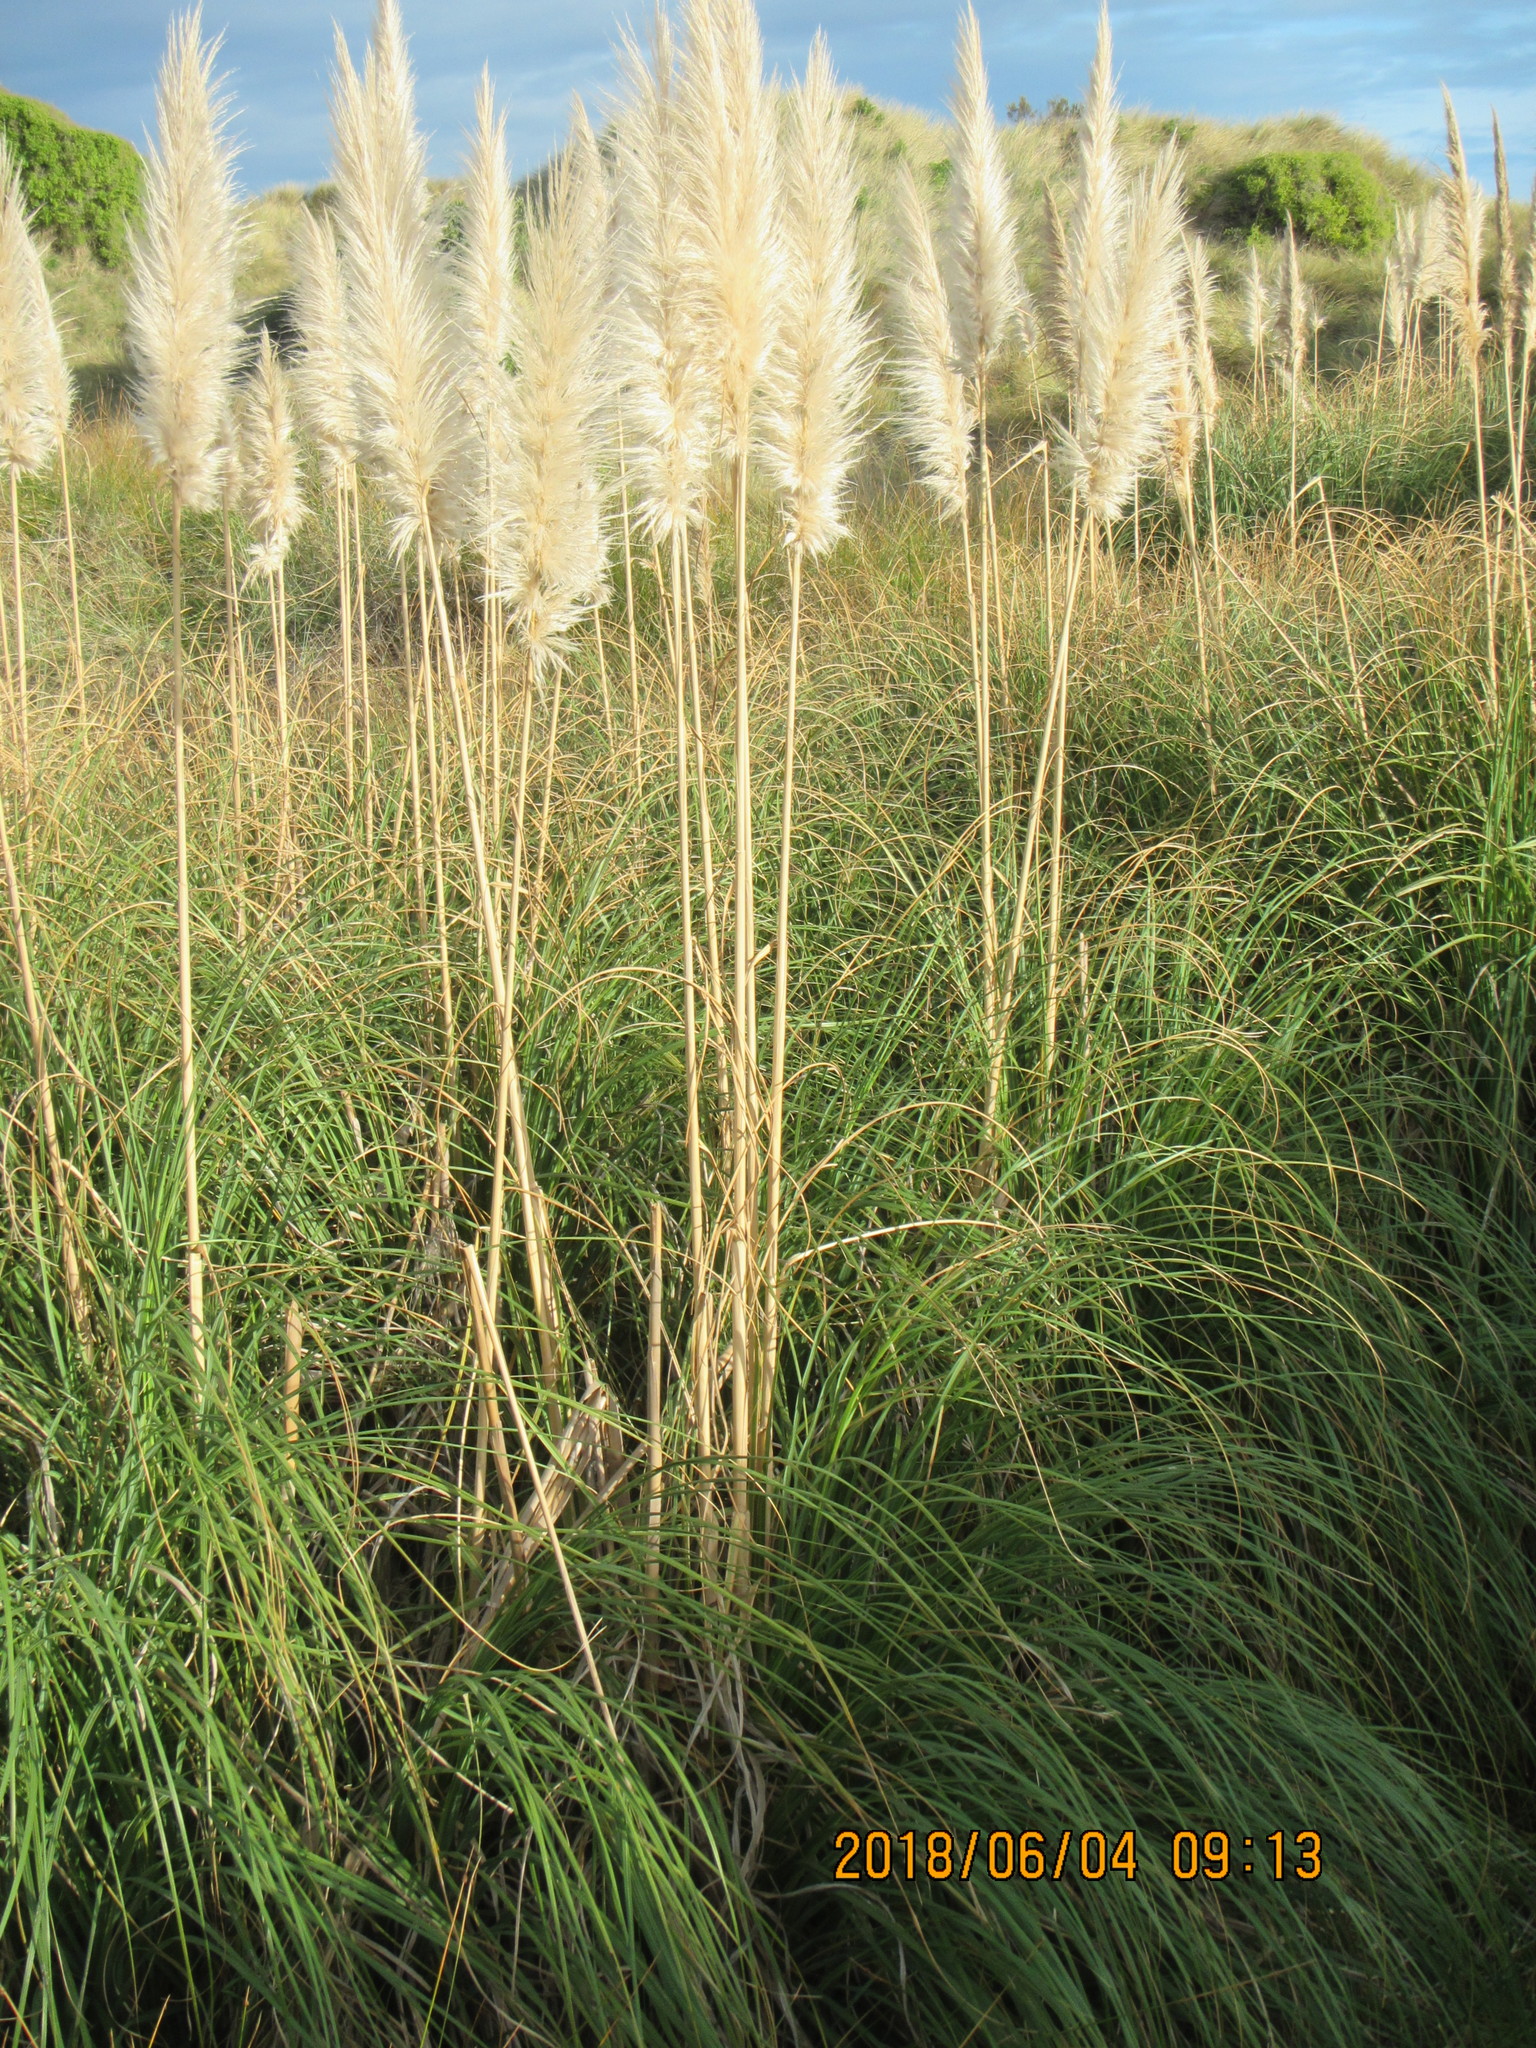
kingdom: Plantae
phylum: Tracheophyta
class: Liliopsida
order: Poales
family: Poaceae
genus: Cortaderia
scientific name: Cortaderia selloana
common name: Uruguayan pampas grass
